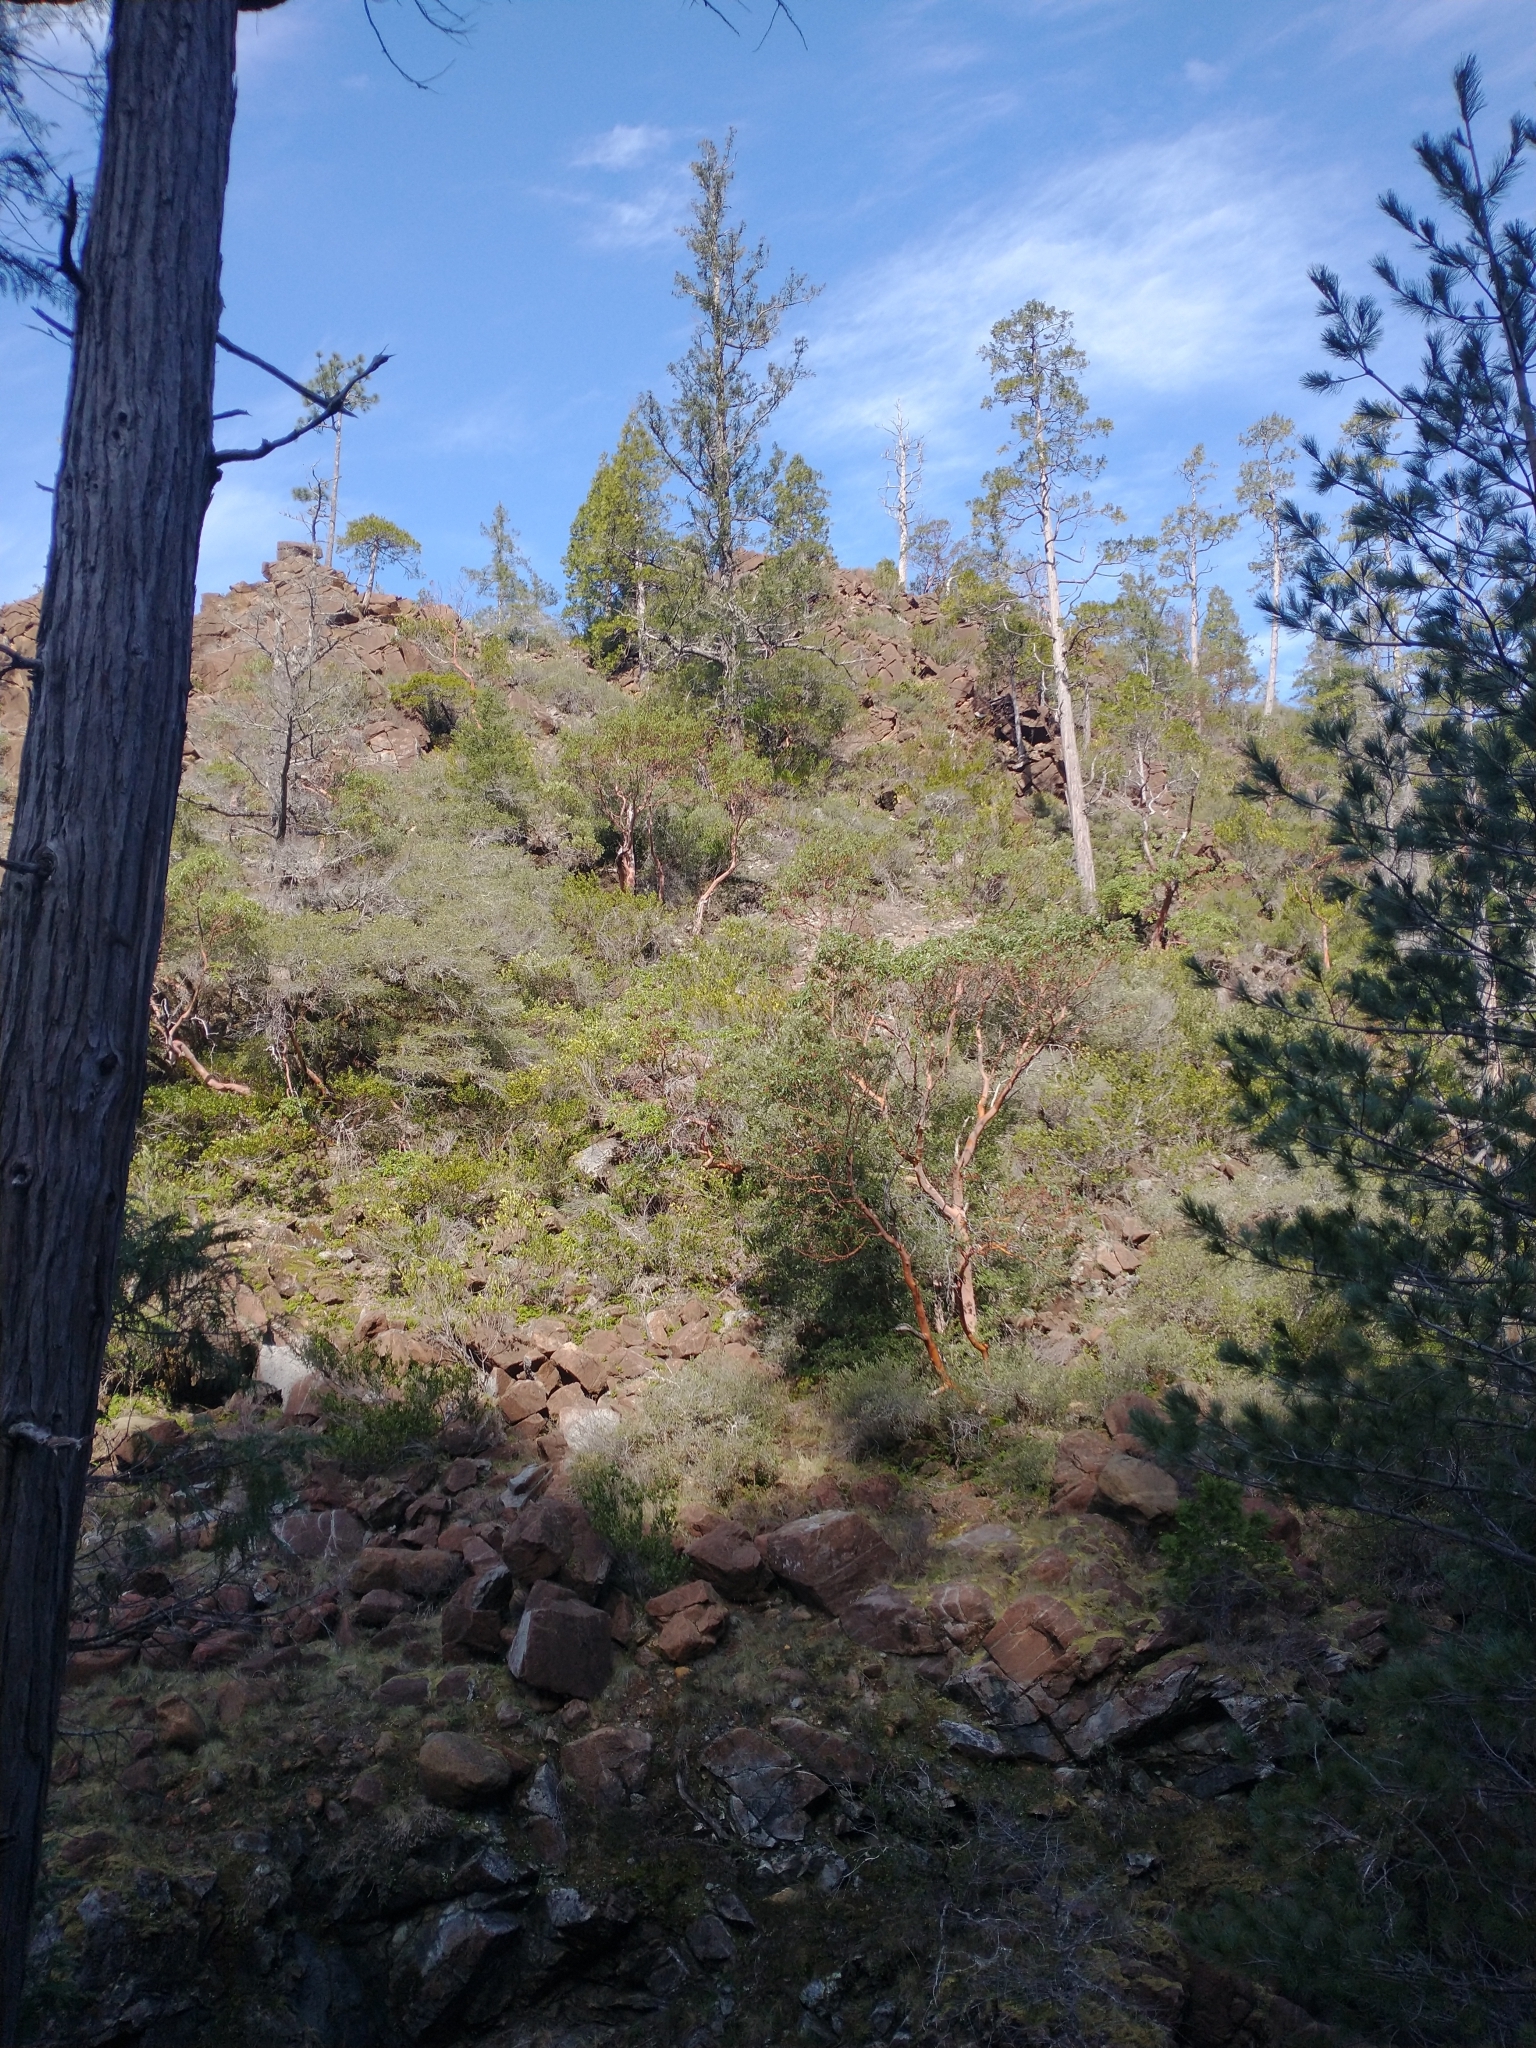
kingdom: Plantae
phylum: Tracheophyta
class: Magnoliopsida
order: Ericales
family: Ericaceae
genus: Arbutus
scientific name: Arbutus menziesii
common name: Pacific madrone
